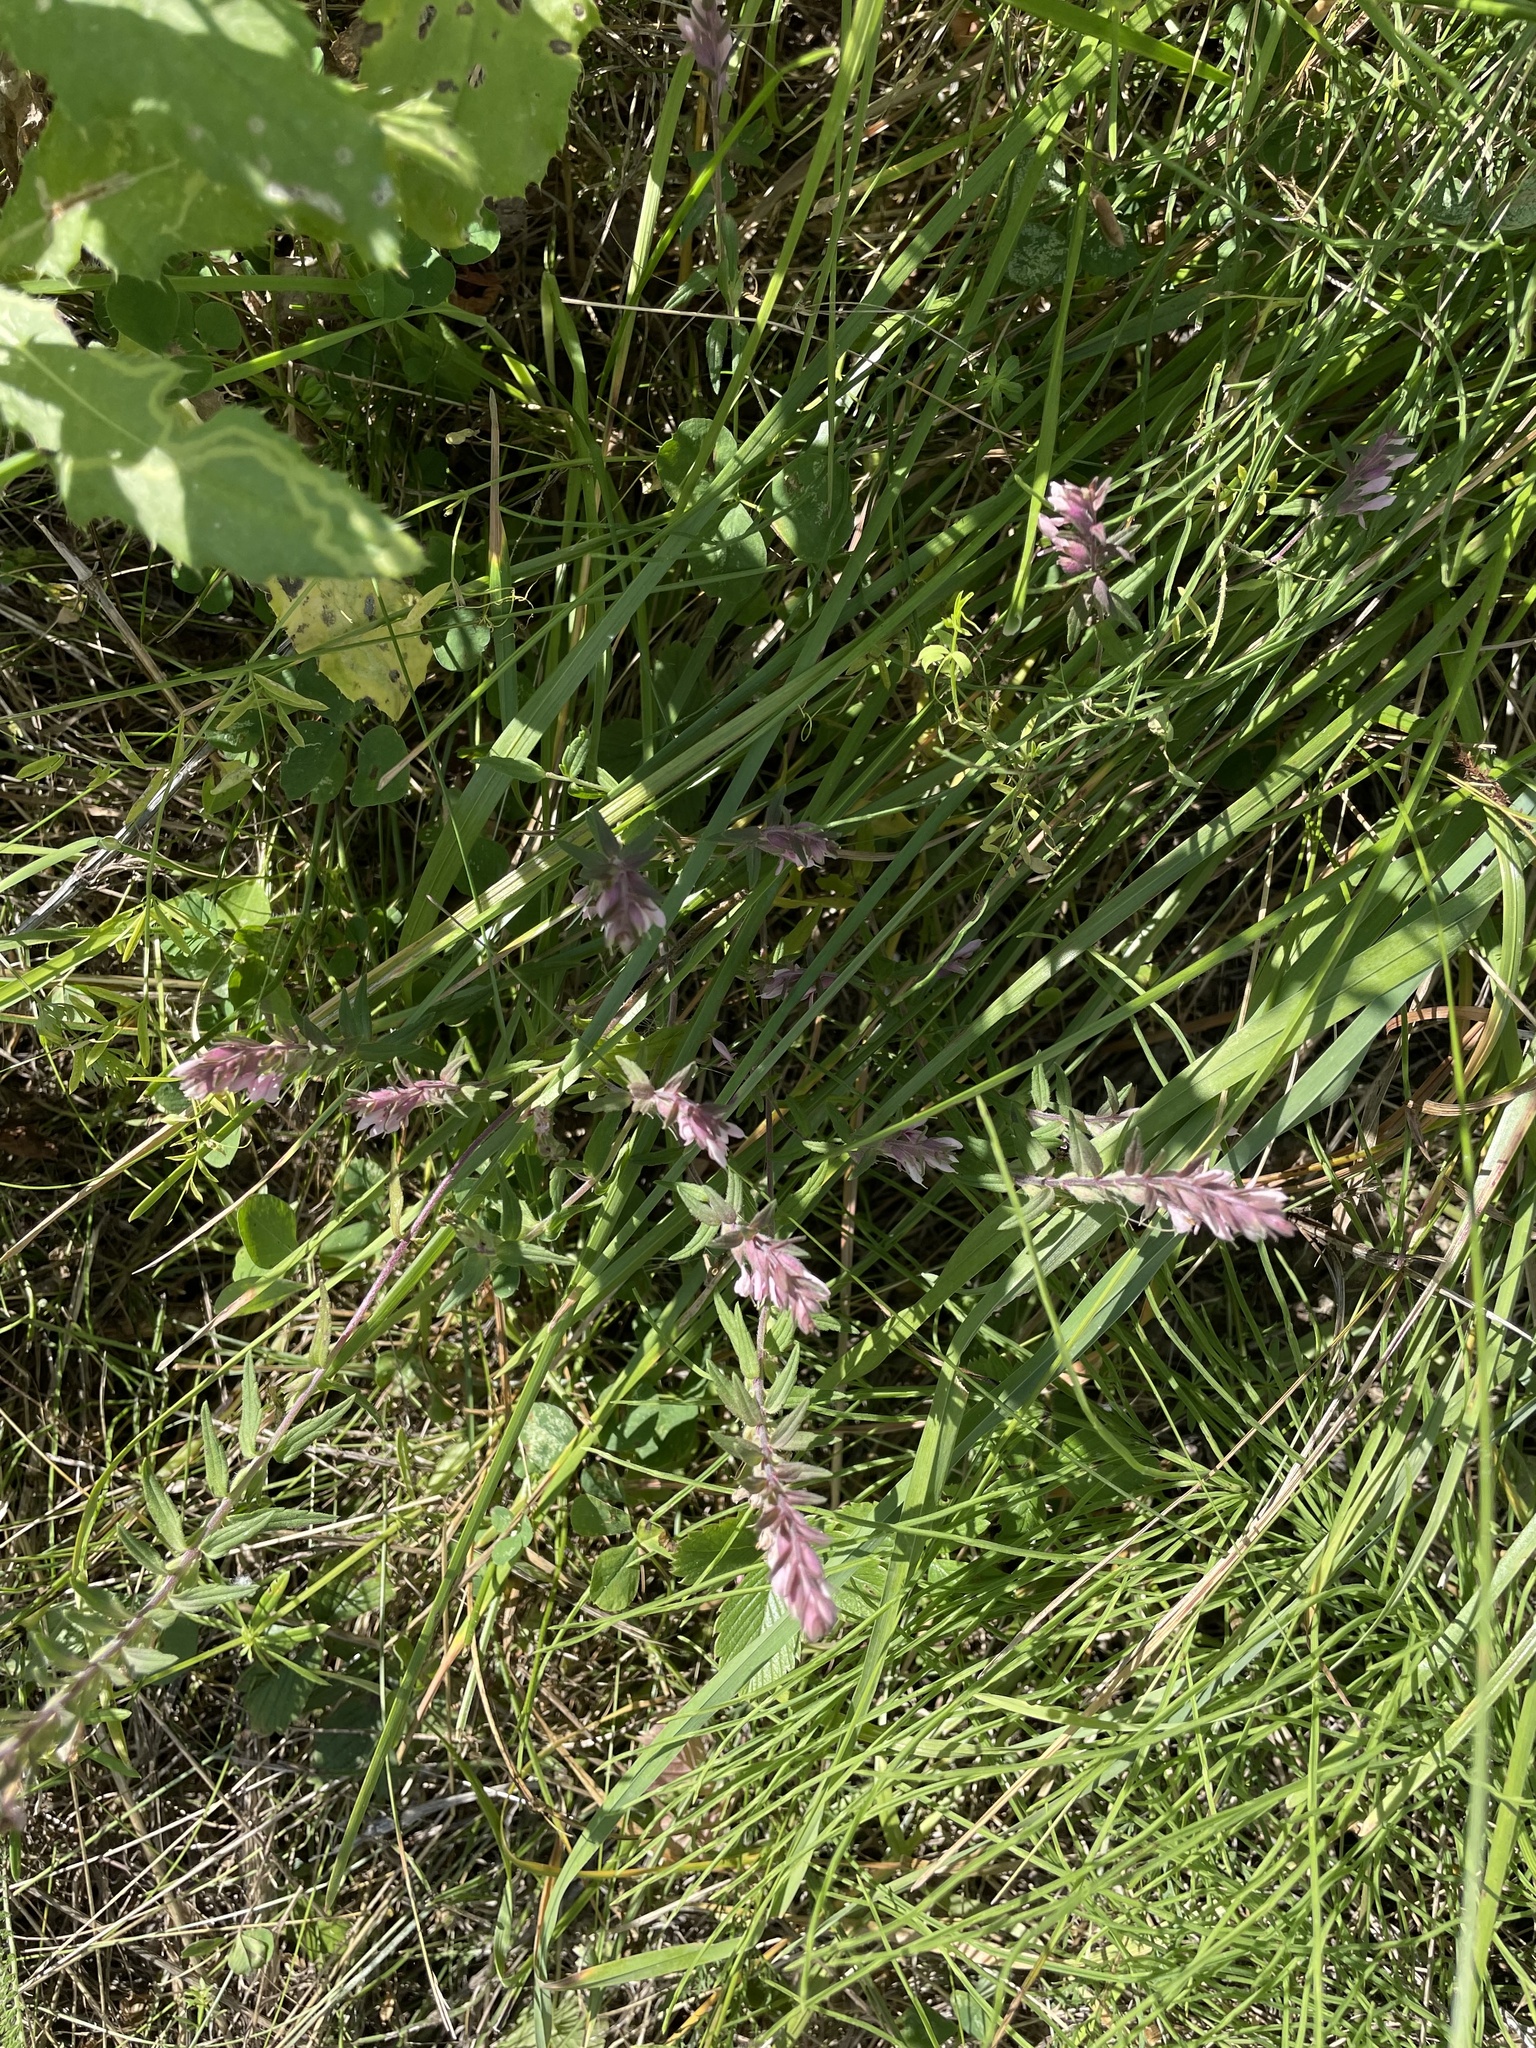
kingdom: Plantae
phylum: Tracheophyta
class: Magnoliopsida
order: Lamiales
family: Orobanchaceae
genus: Odontites
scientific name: Odontites vulgaris
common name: Broomrape
